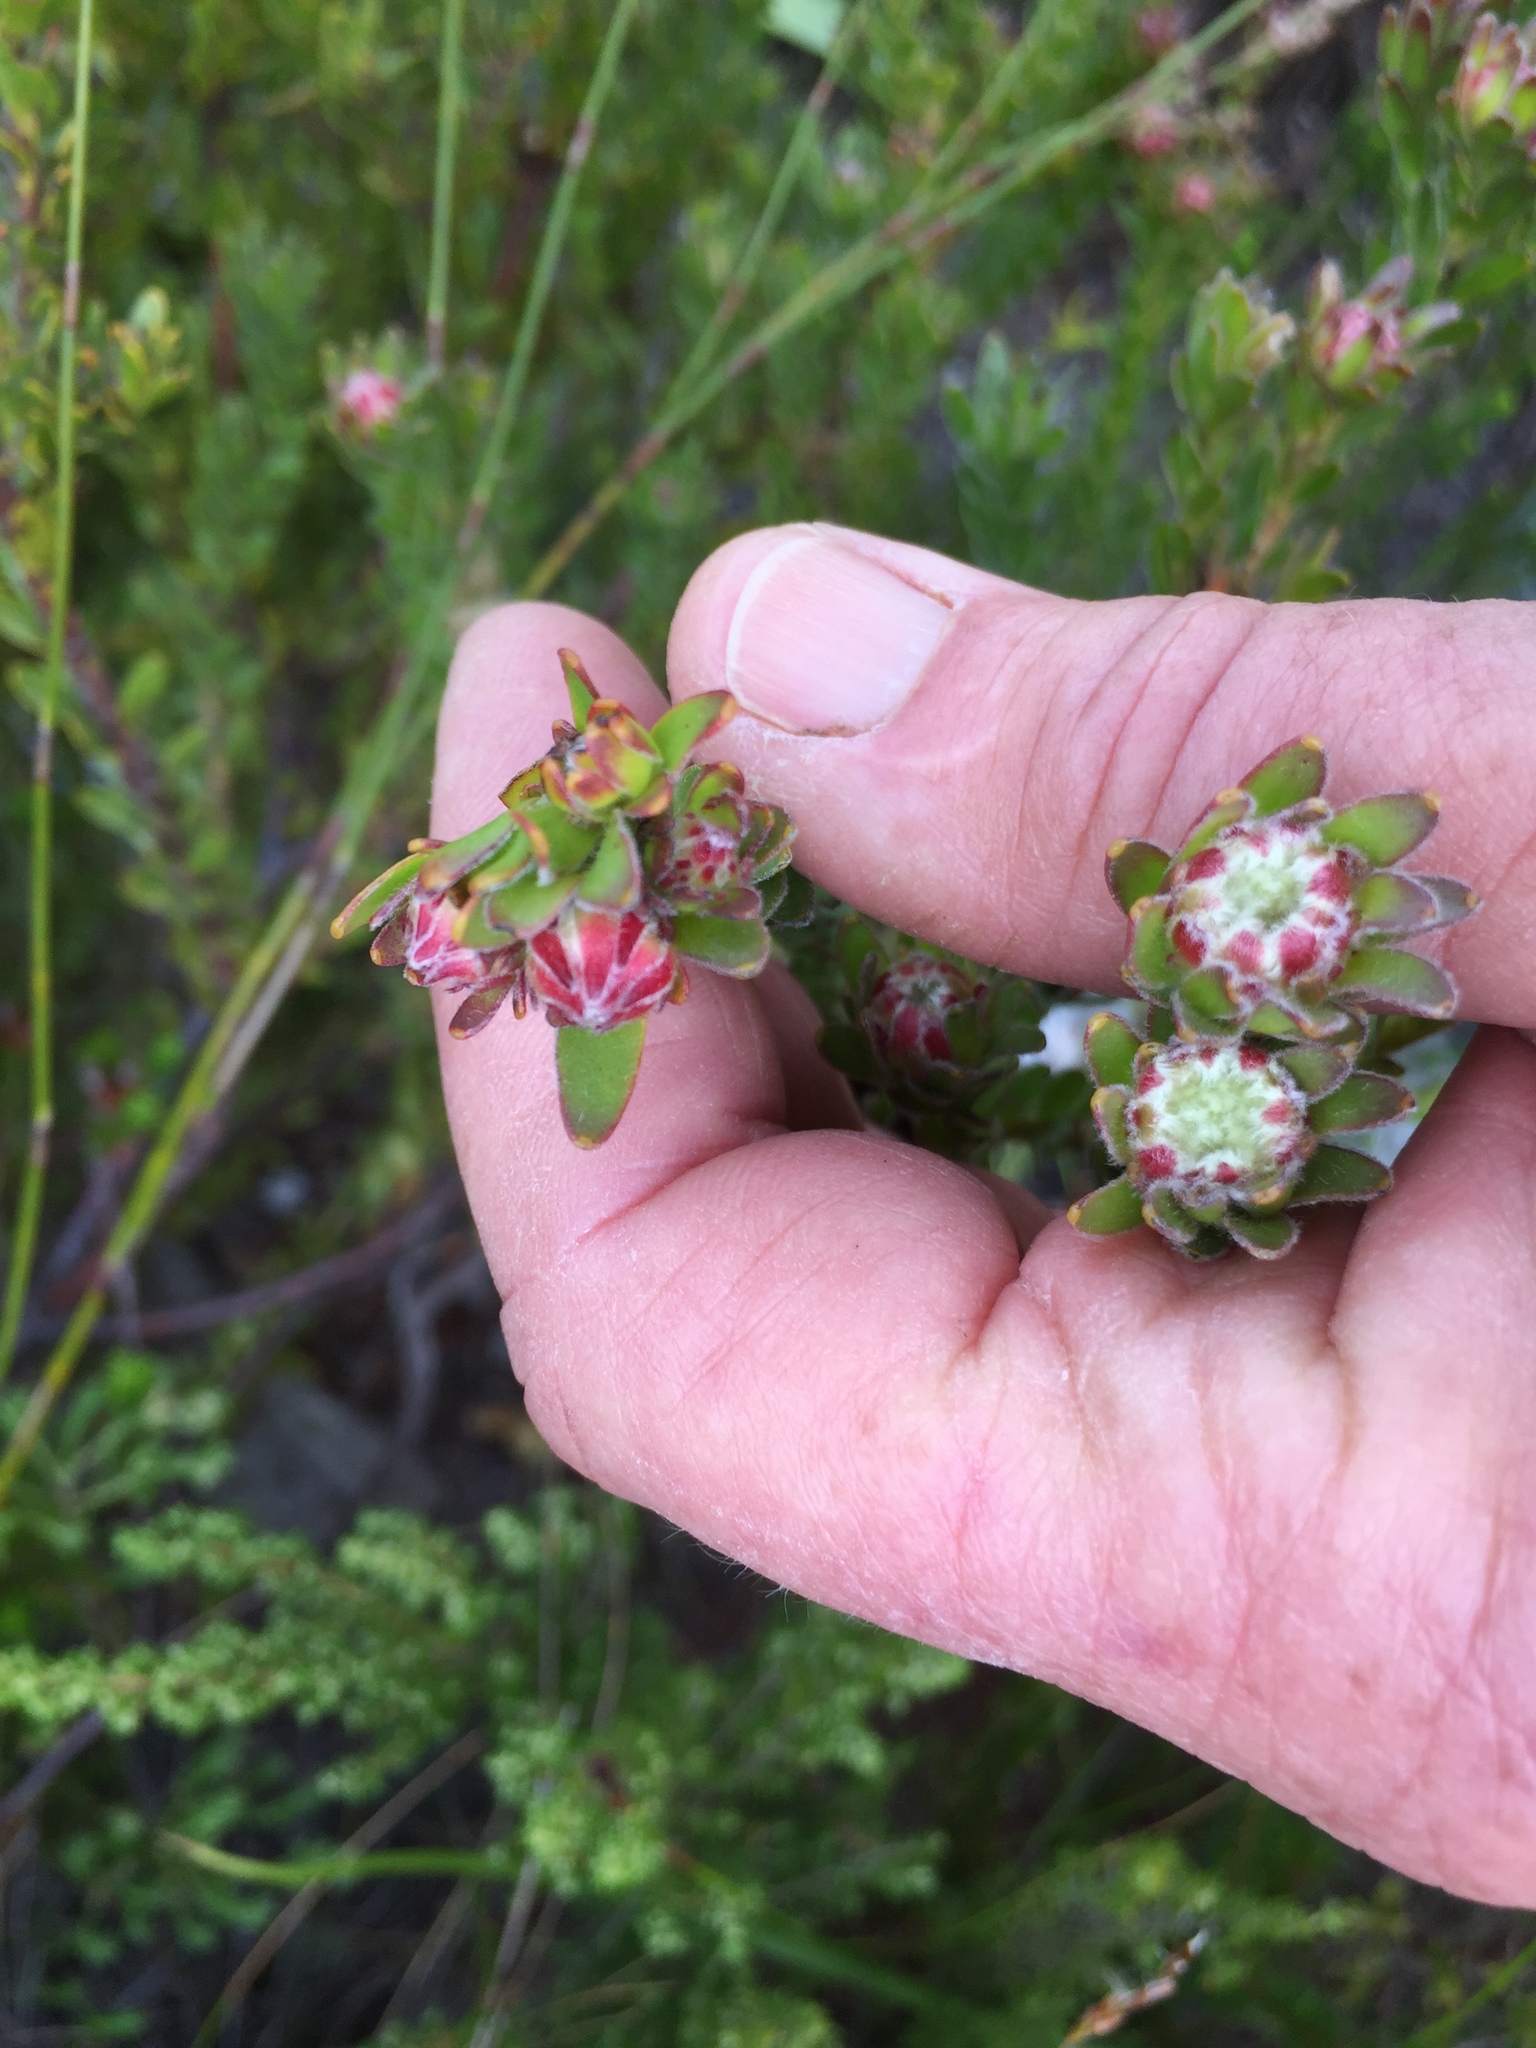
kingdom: Plantae
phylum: Tracheophyta
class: Magnoliopsida
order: Proteales
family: Proteaceae
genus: Diastella
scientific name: Diastella fraterna
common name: Palmiet silkypuff
